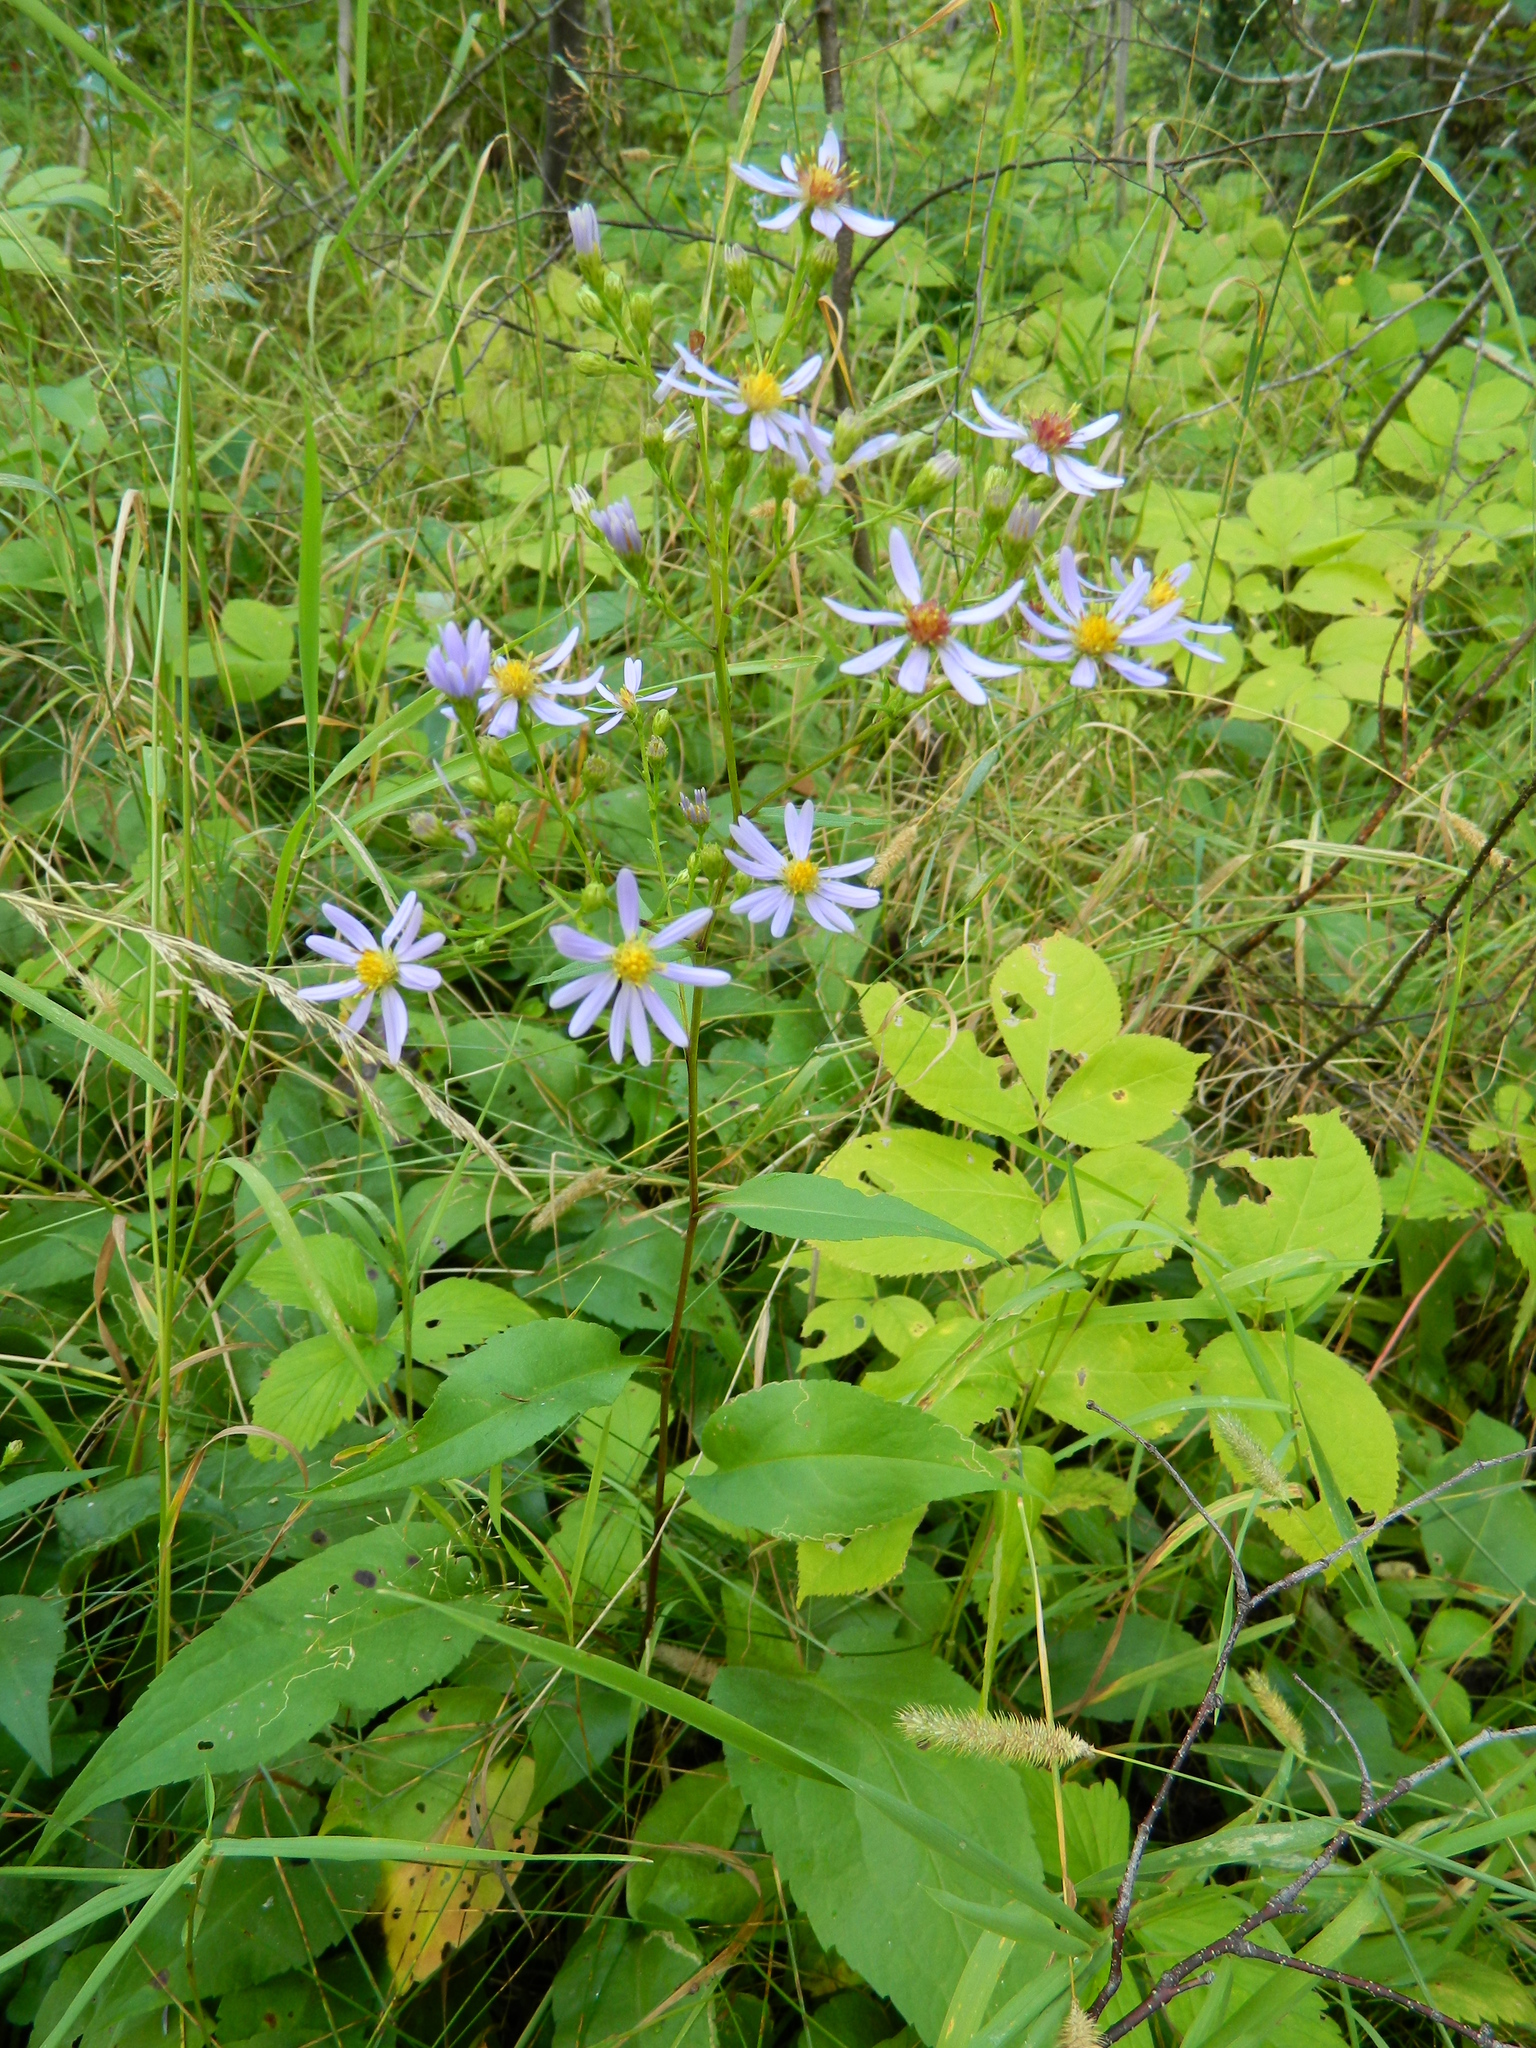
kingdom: Plantae
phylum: Tracheophyta
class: Magnoliopsida
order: Asterales
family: Asteraceae
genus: Symphyotrichum
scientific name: Symphyotrichum ciliolatum
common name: Fringed blue aster
